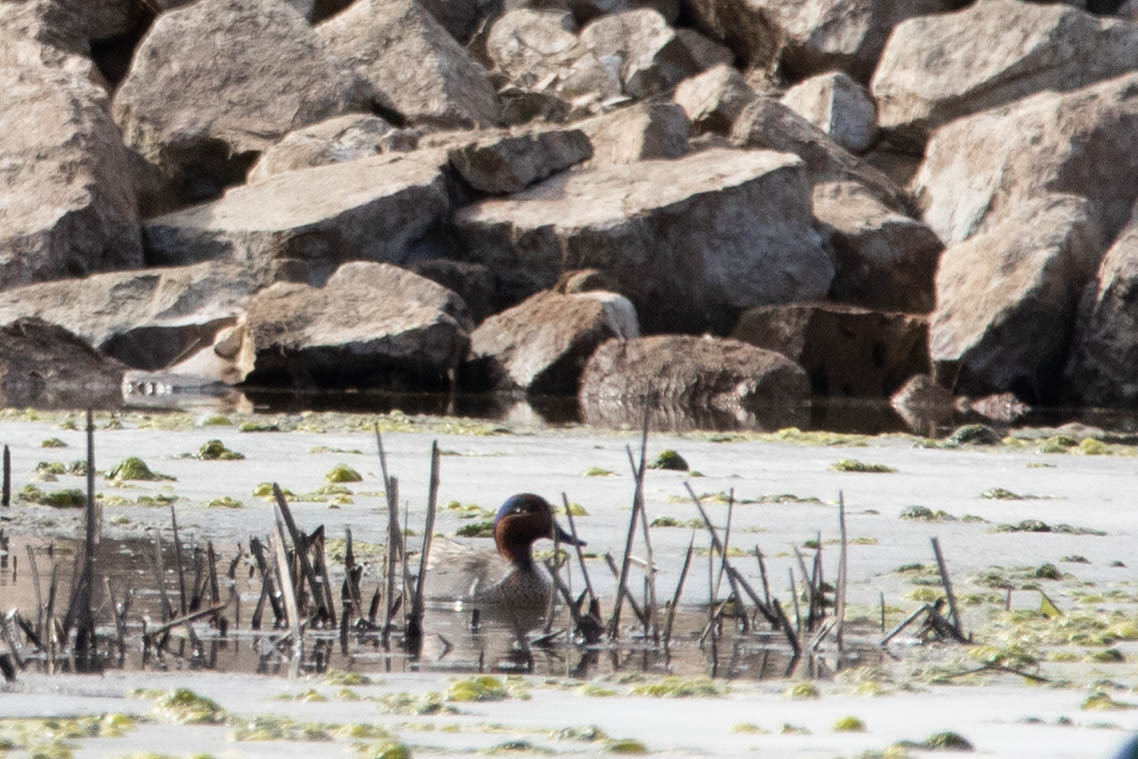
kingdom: Animalia
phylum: Chordata
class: Aves
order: Anseriformes
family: Anatidae
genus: Anas
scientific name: Anas crecca
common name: Eurasian teal
